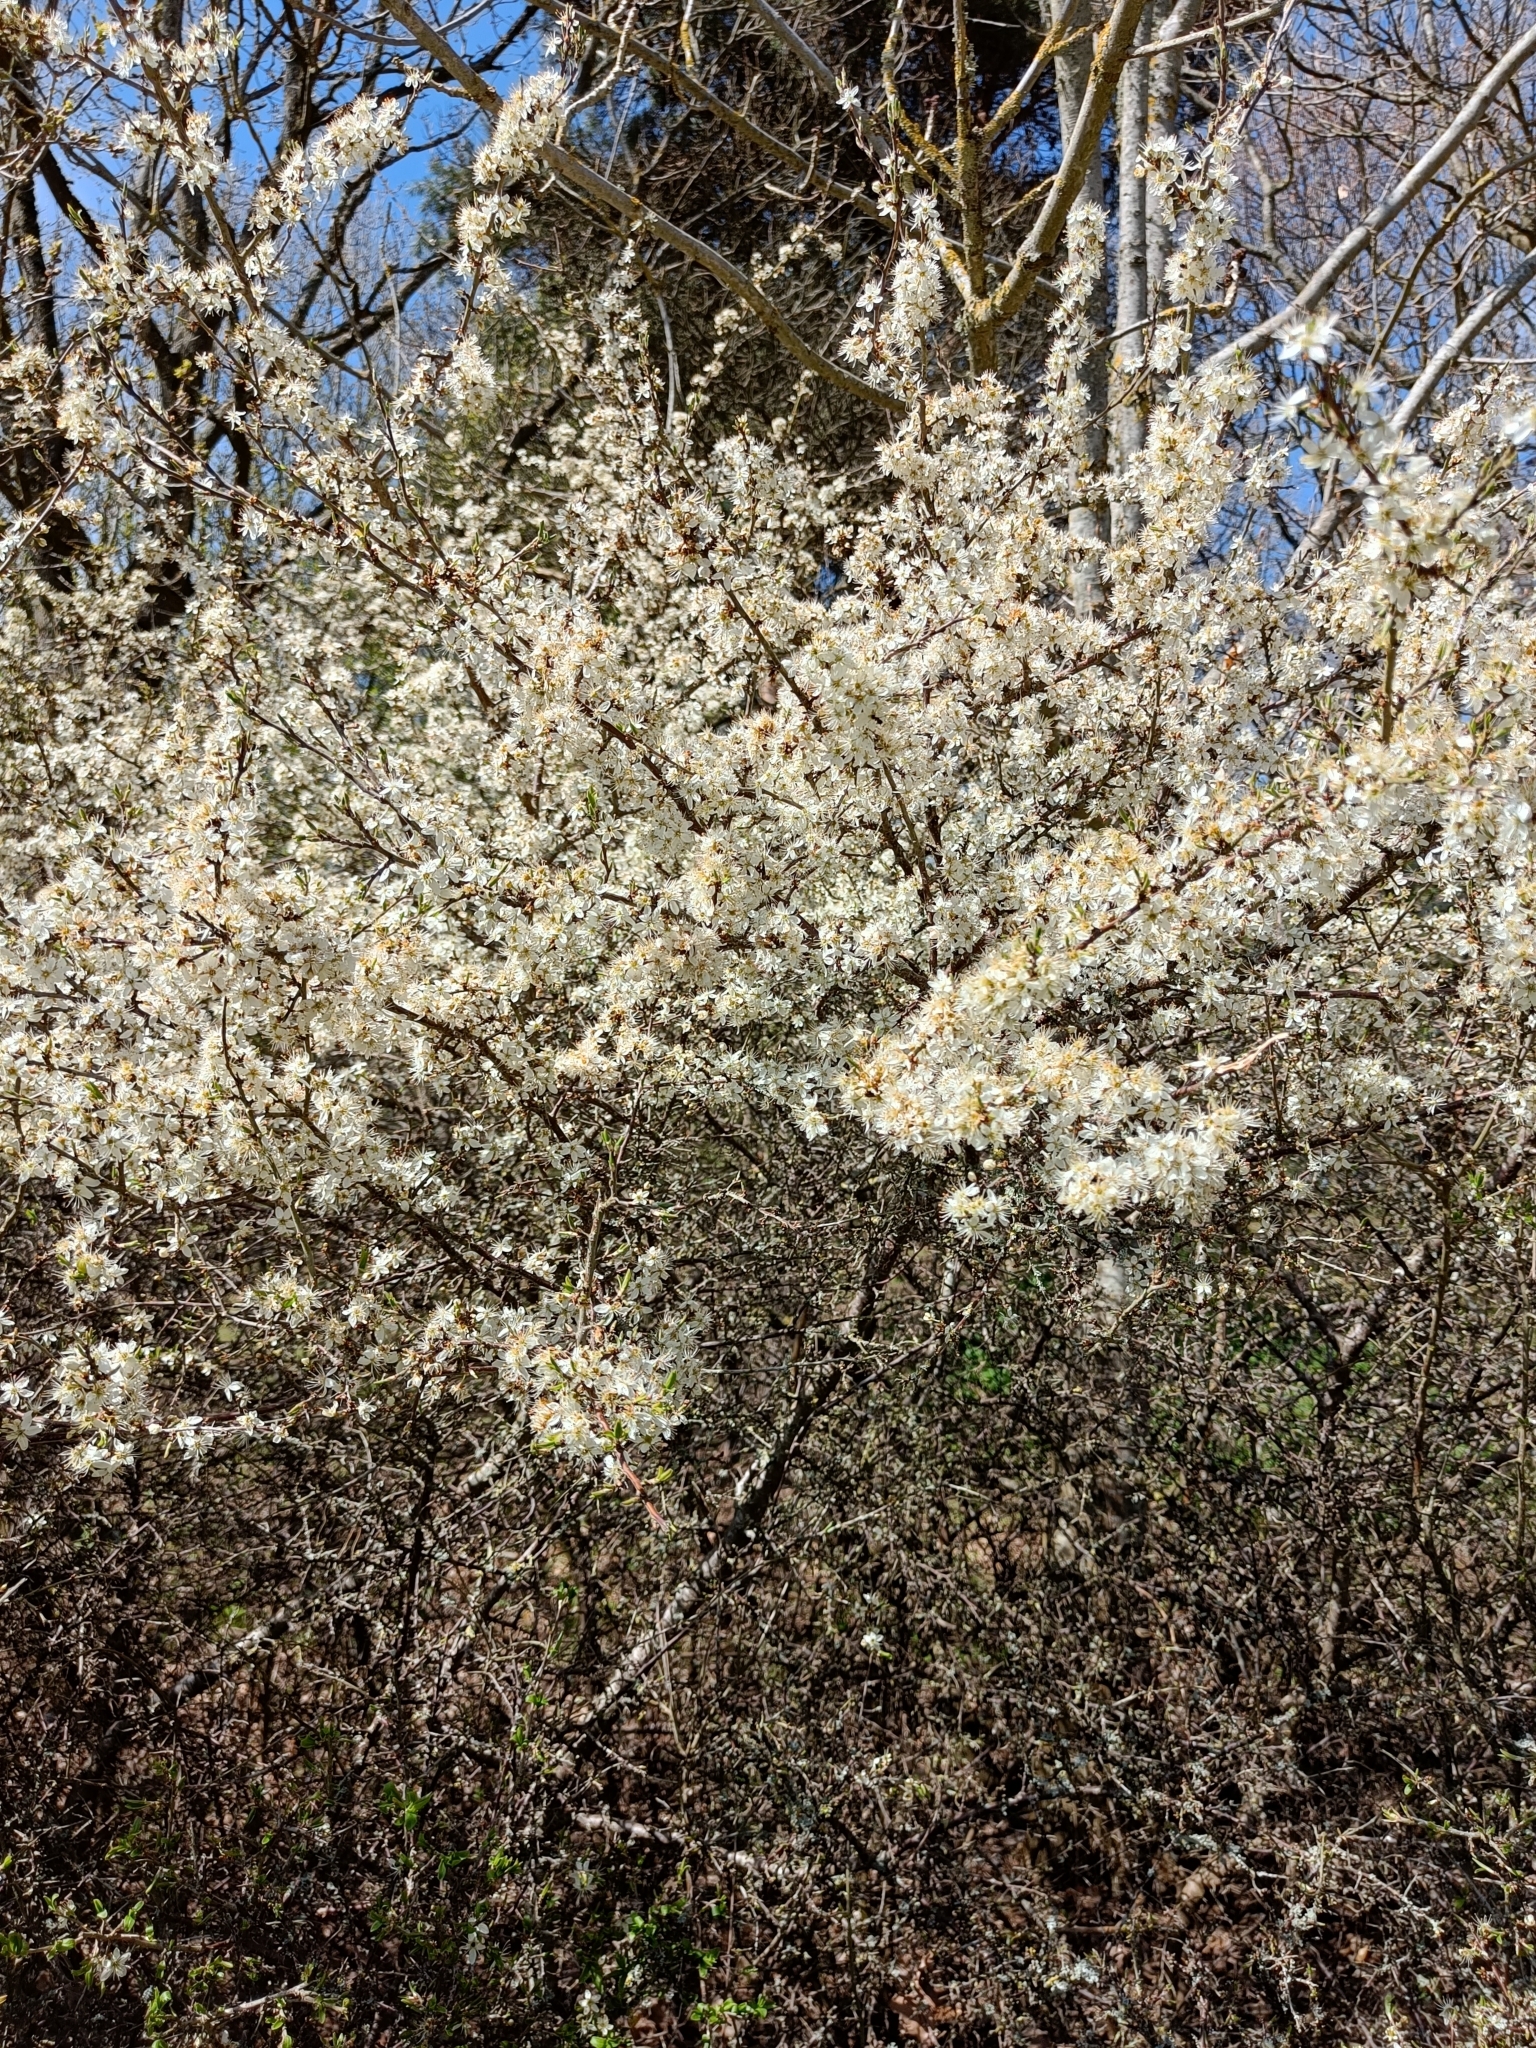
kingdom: Plantae
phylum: Tracheophyta
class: Magnoliopsida
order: Rosales
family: Rosaceae
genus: Prunus
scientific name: Prunus spinosa
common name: Blackthorn
